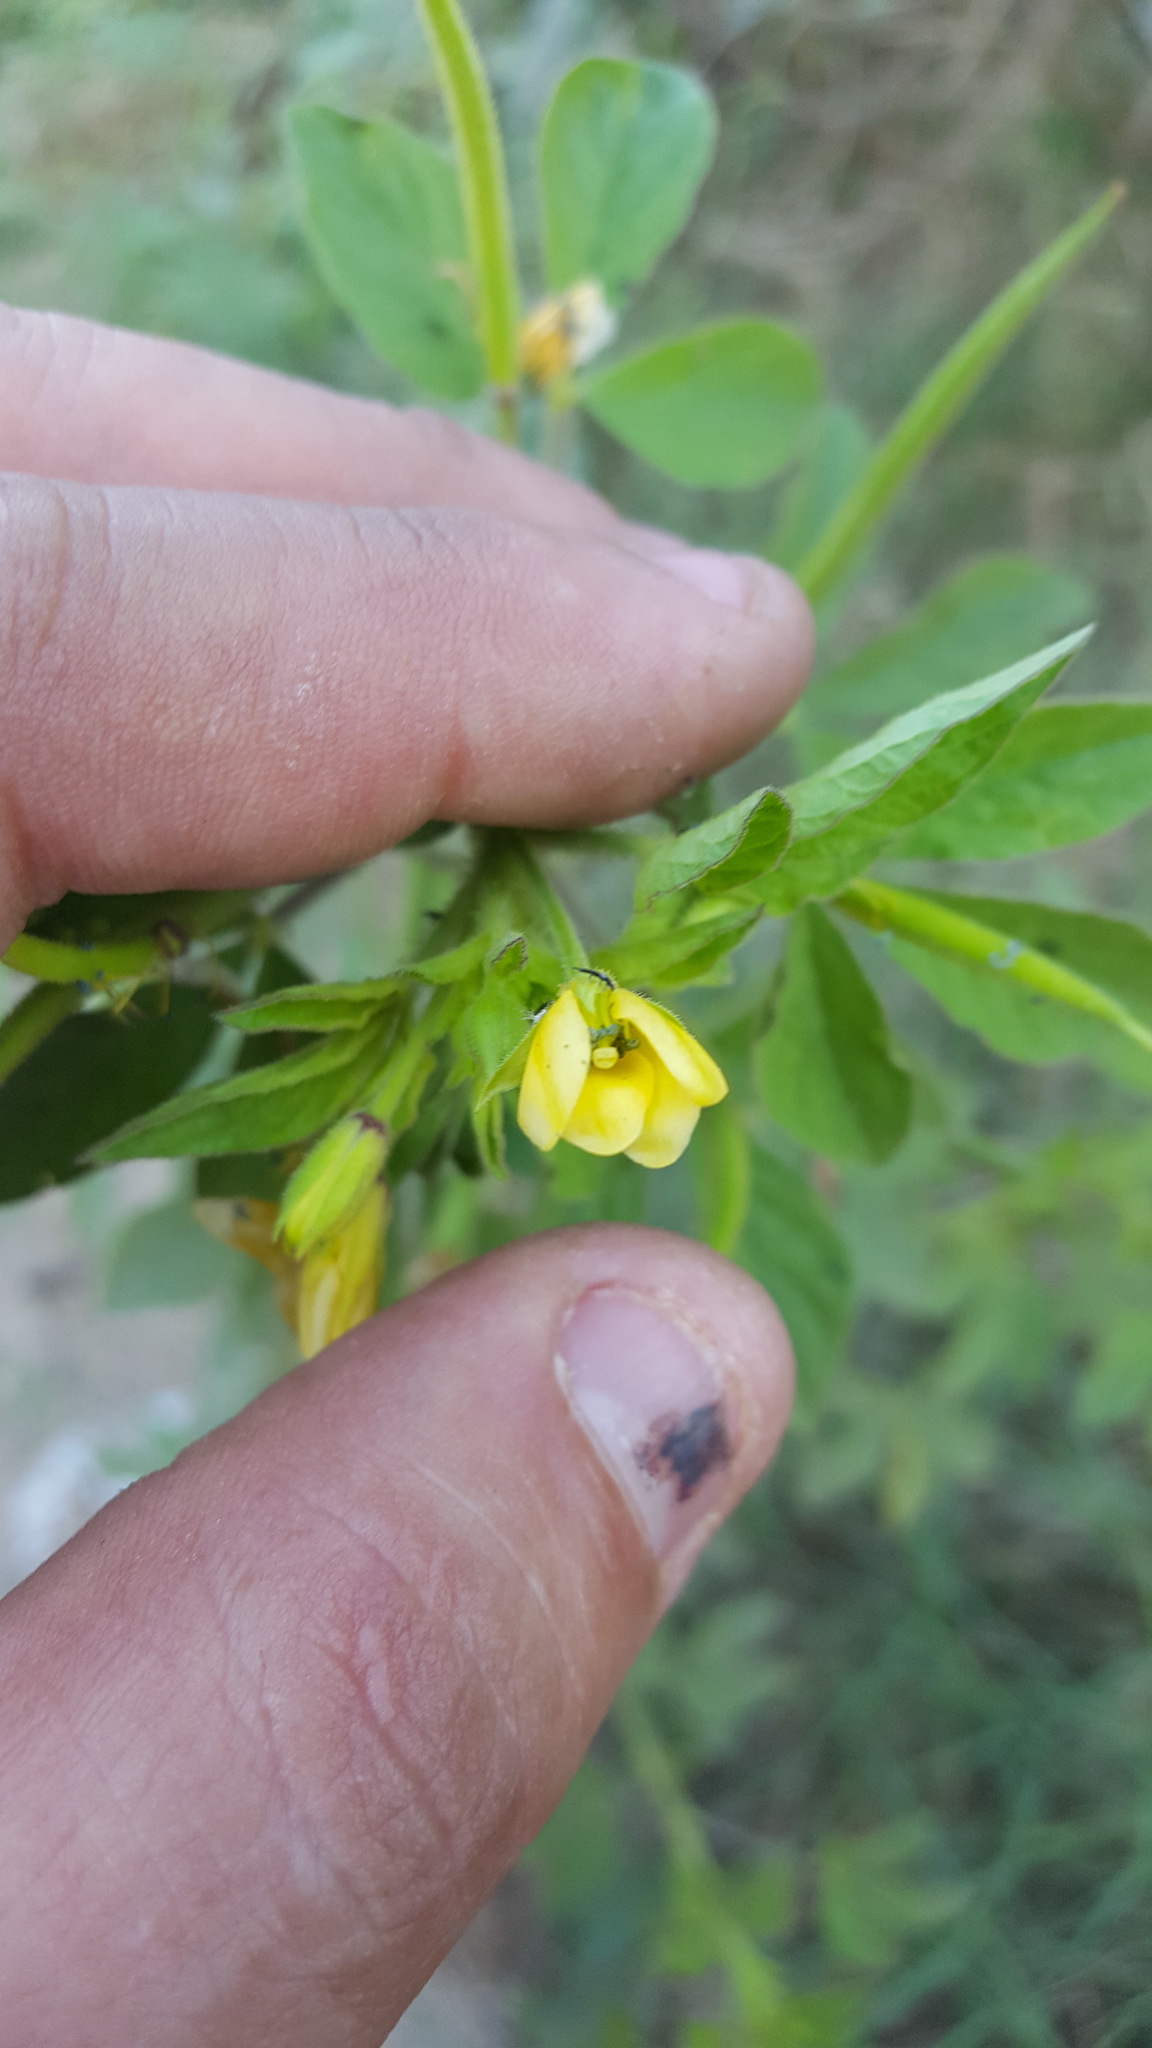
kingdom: Plantae
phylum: Tracheophyta
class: Magnoliopsida
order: Brassicales
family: Cleomaceae
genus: Arivela
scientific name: Arivela viscosa
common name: Asian spiderflower
